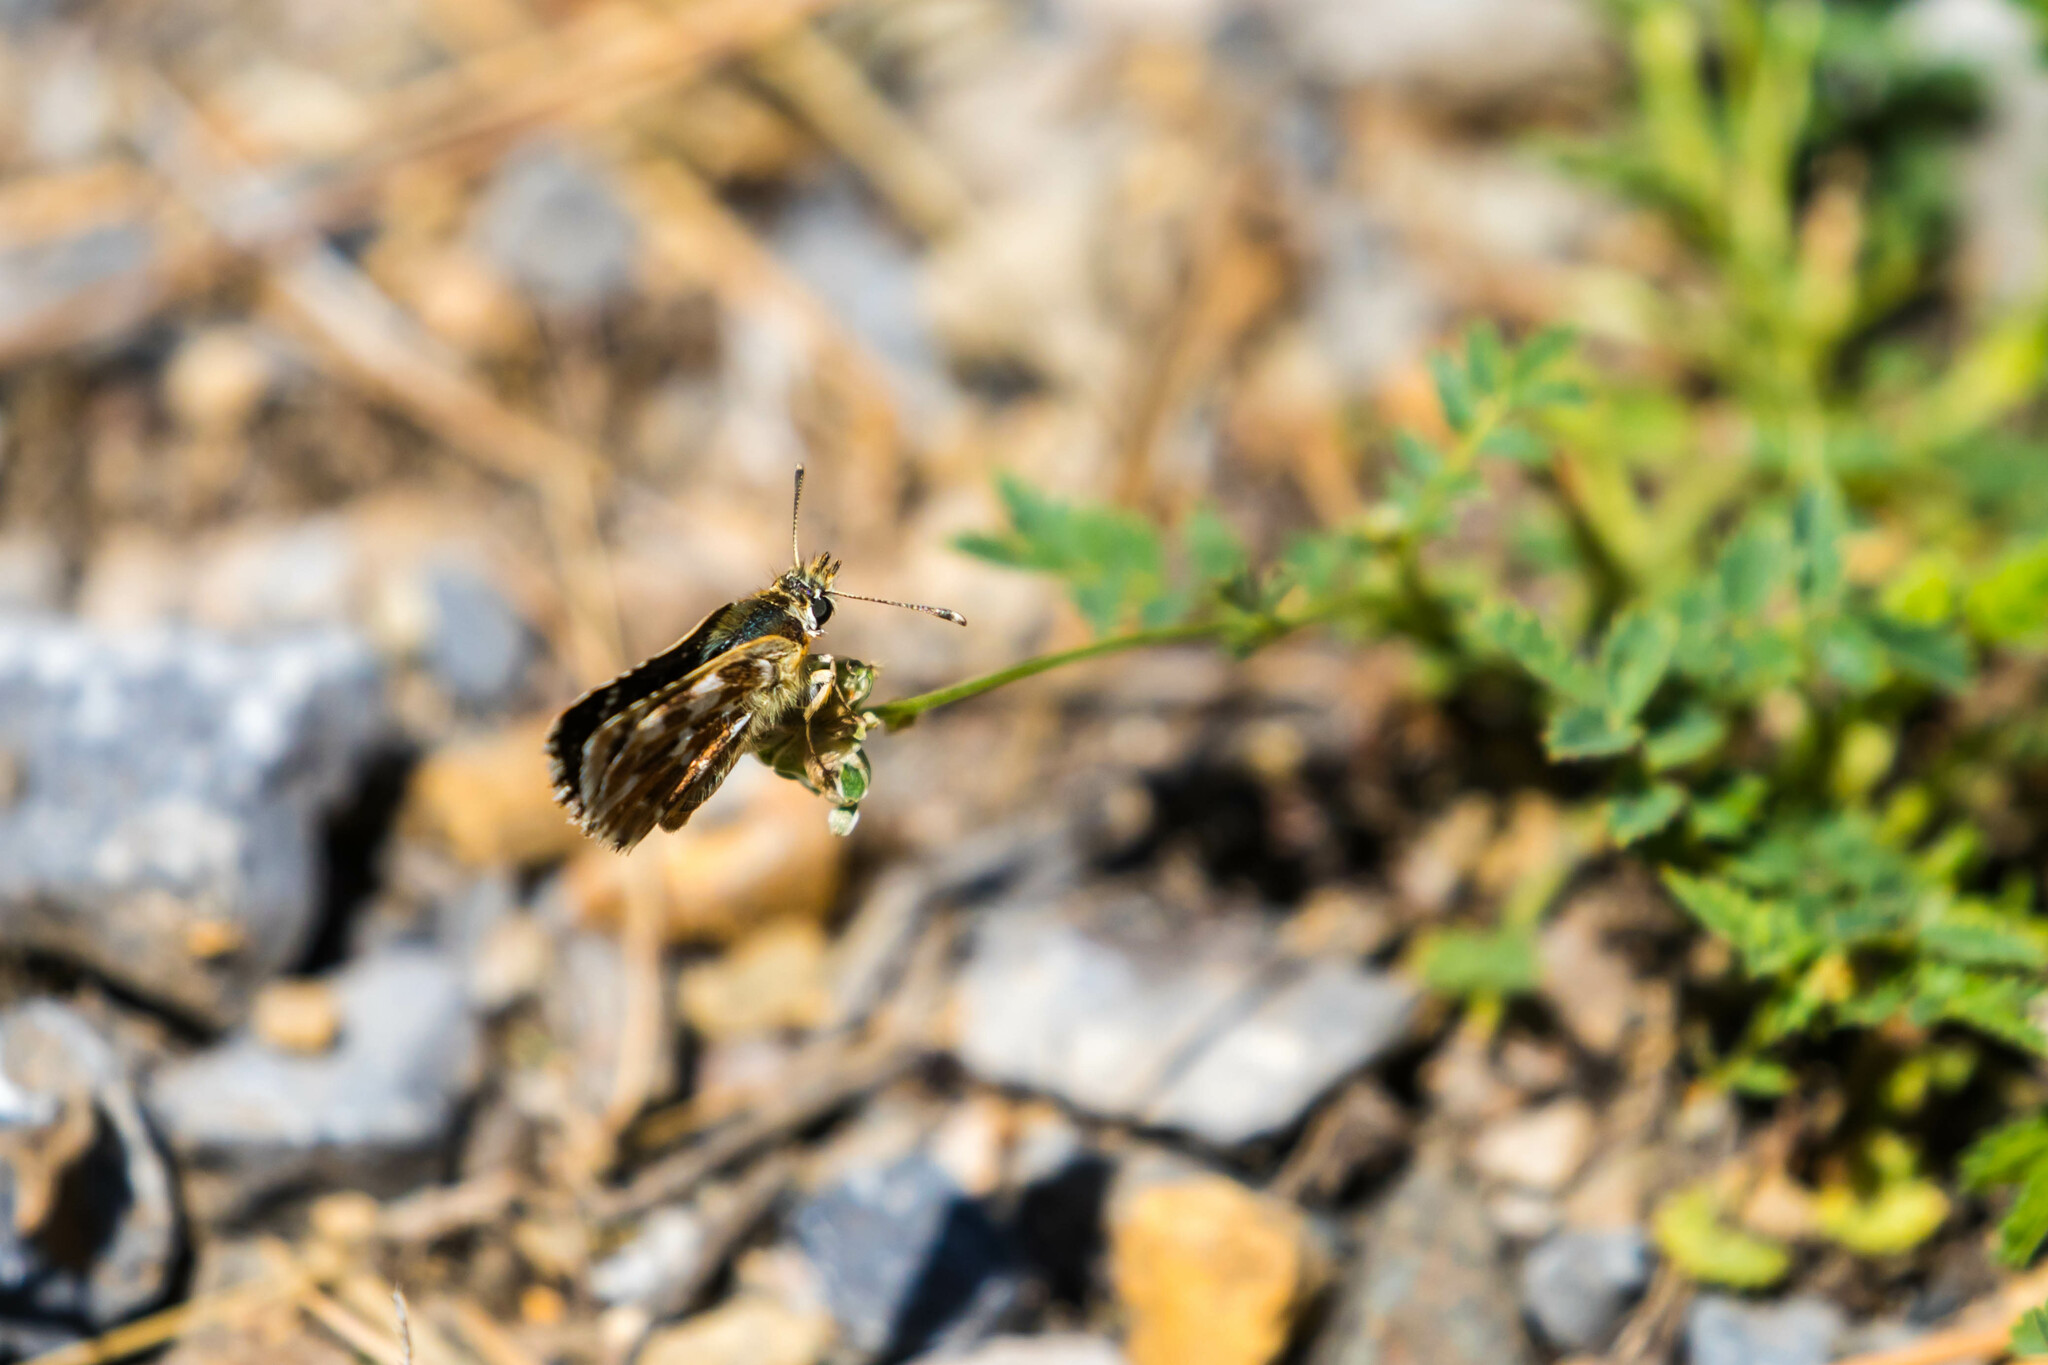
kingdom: Animalia
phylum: Arthropoda
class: Insecta
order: Lepidoptera
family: Hesperiidae
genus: Spialia
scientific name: Spialia sertorius
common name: Red underwing skipper
